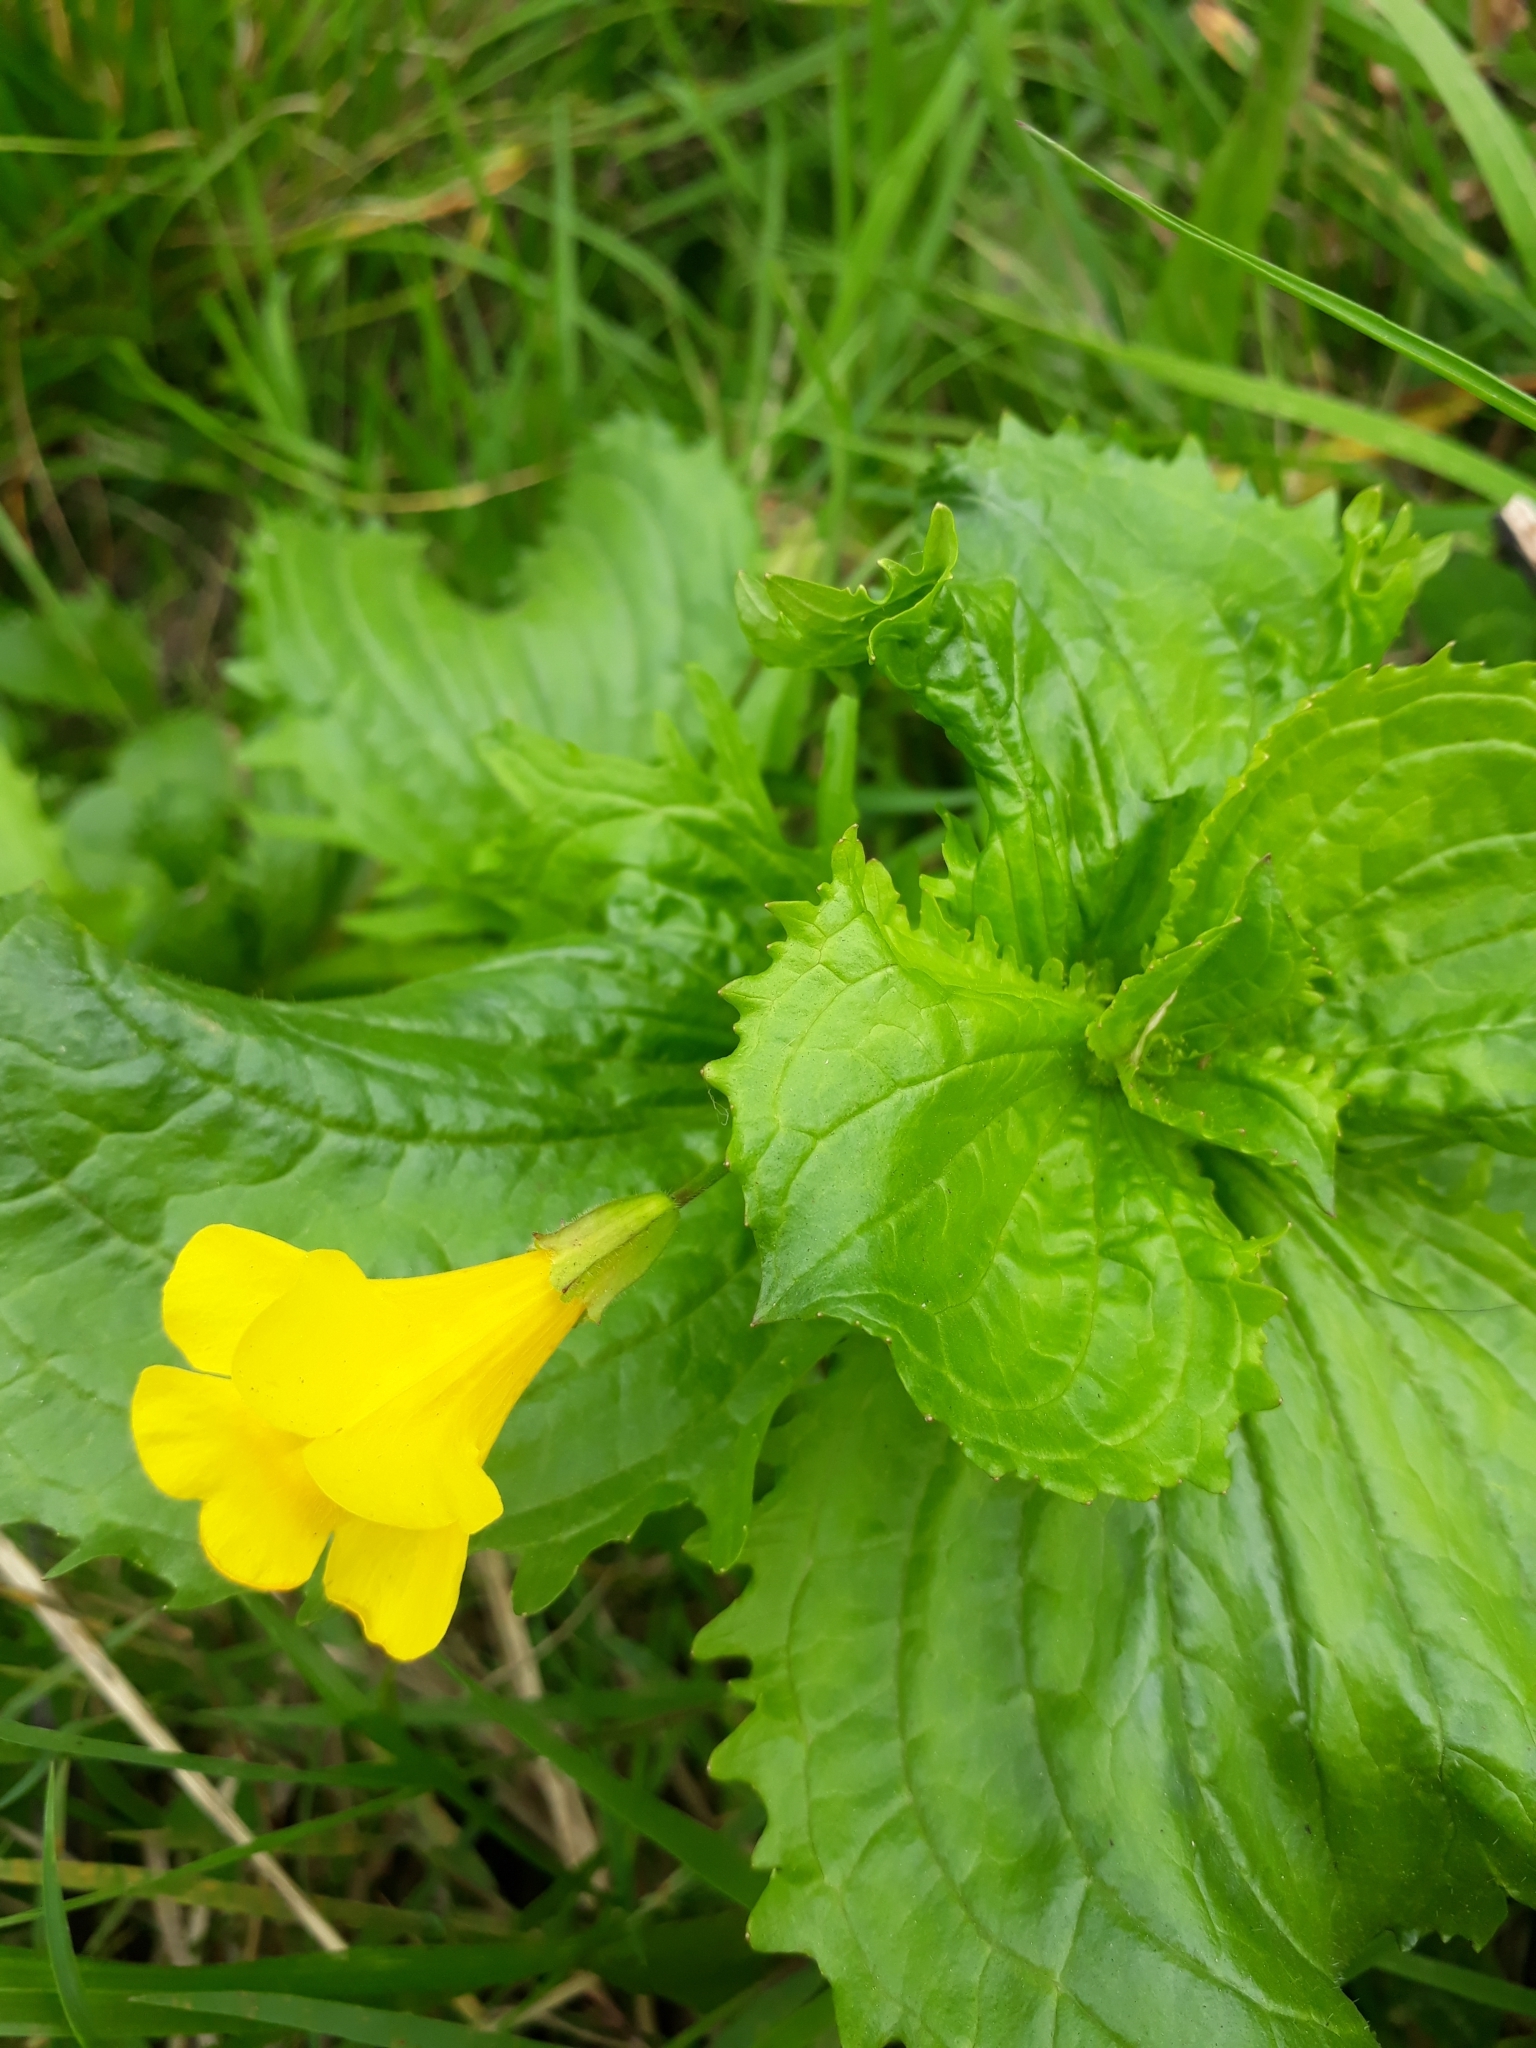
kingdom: Plantae
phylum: Tracheophyta
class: Magnoliopsida
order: Lamiales
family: Phrymaceae
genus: Erythranthe
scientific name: Erythranthe guttata
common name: Monkeyflower
